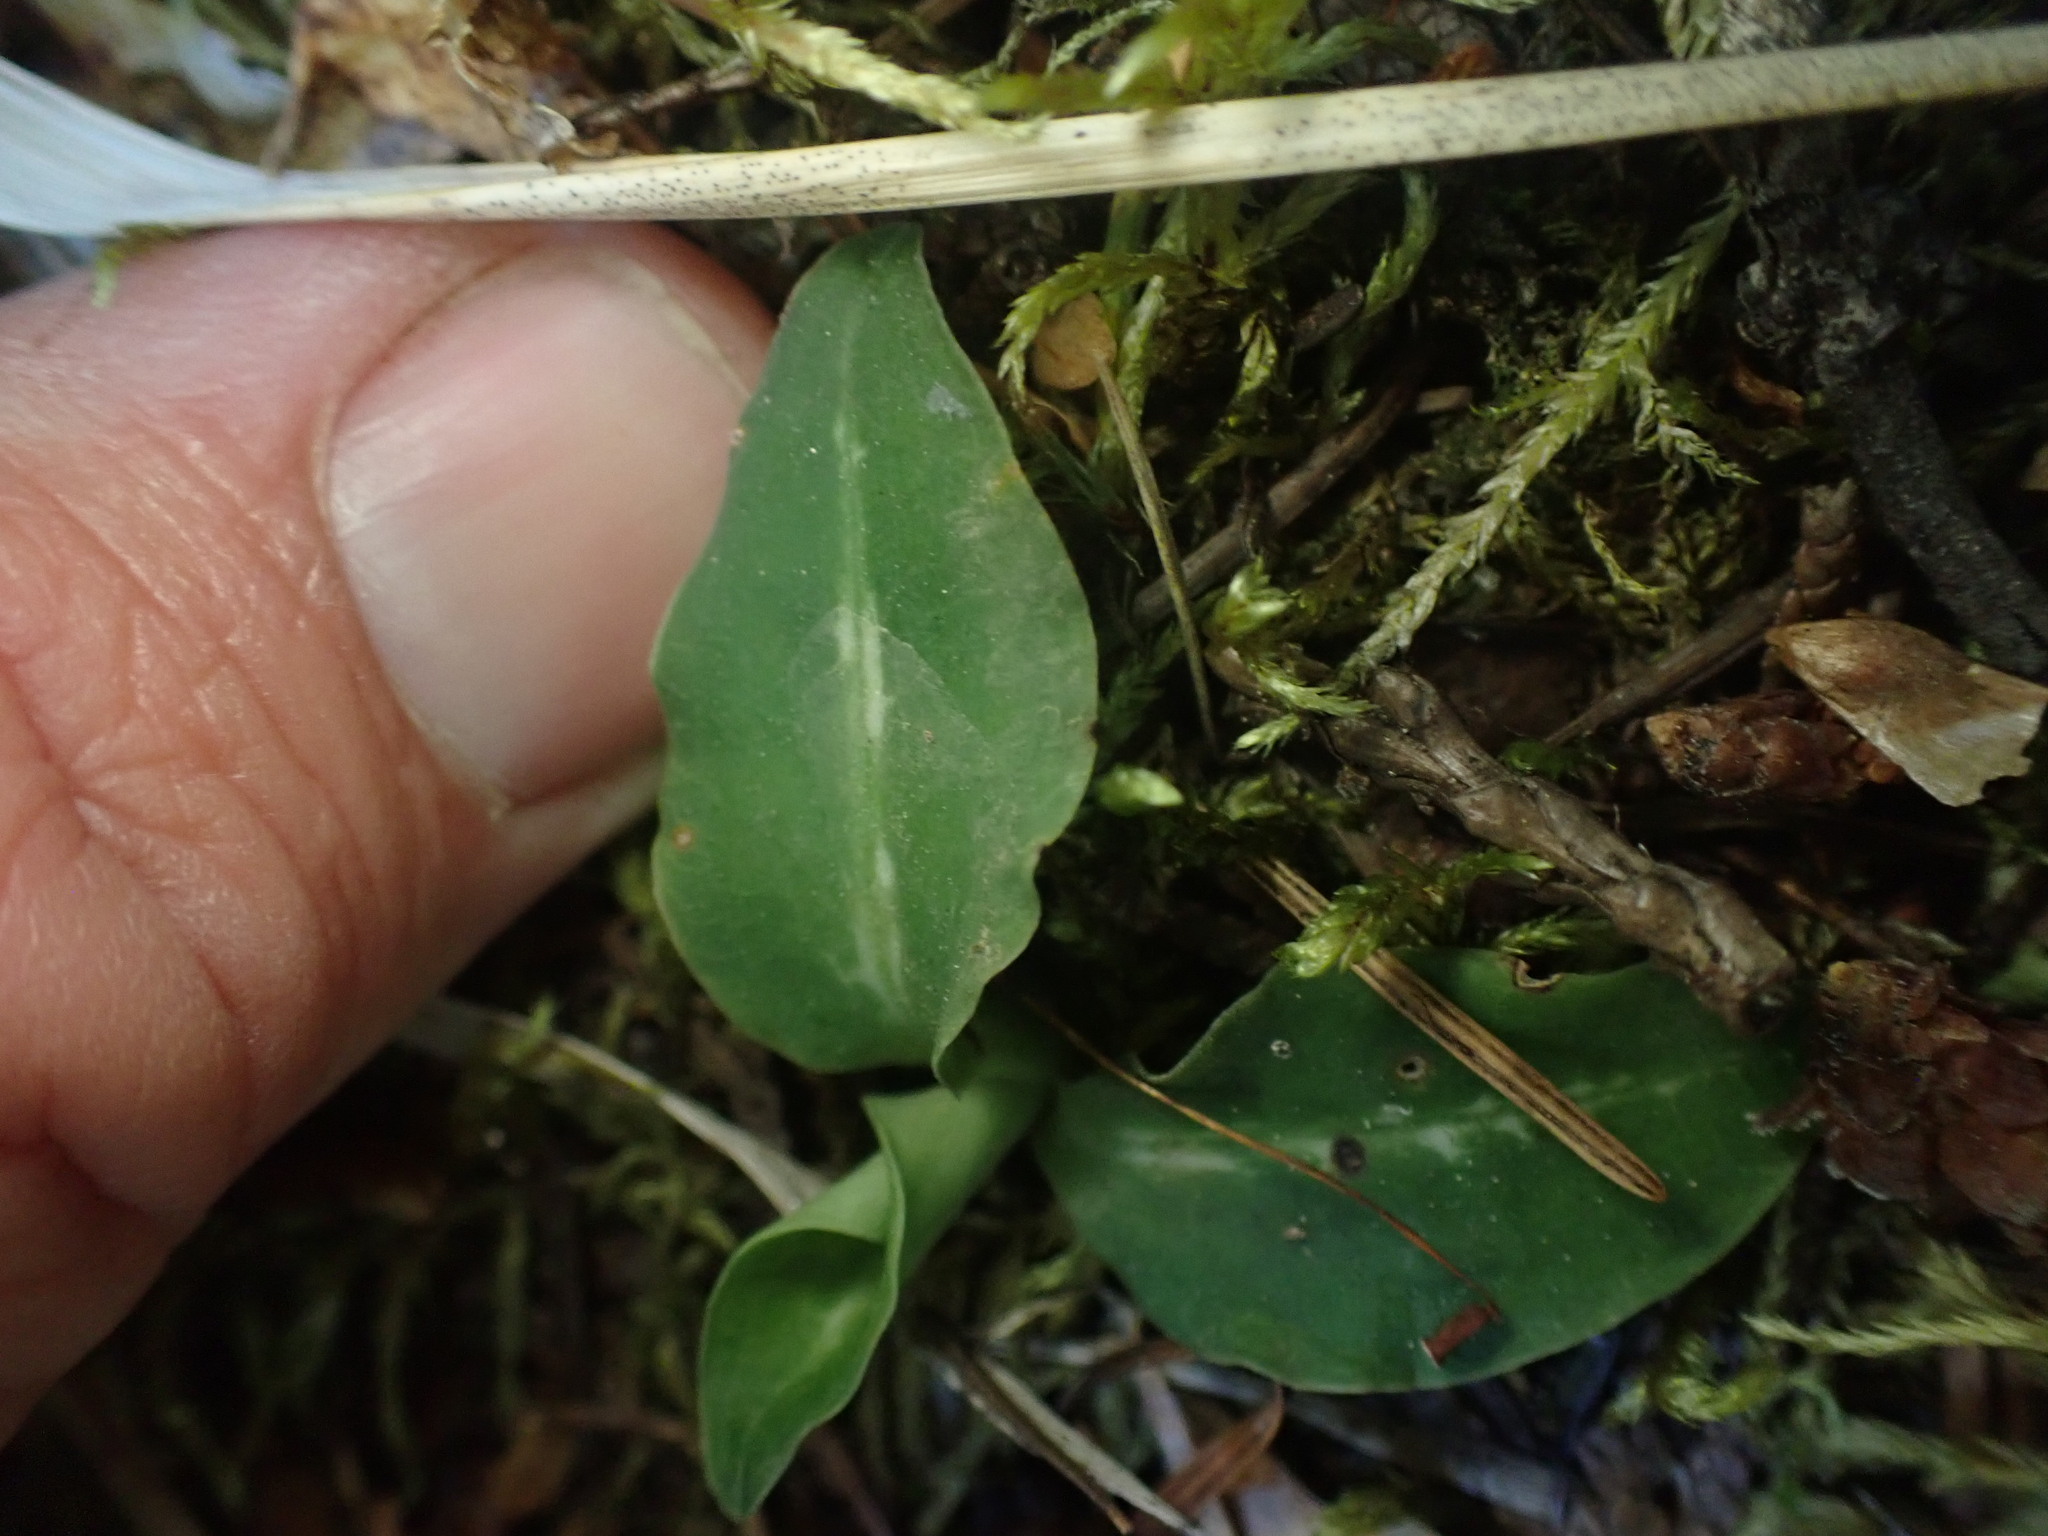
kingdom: Plantae
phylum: Tracheophyta
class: Liliopsida
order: Asparagales
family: Orchidaceae
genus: Goodyera
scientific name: Goodyera oblongifolia
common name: Giant rattlesnake-plantain
